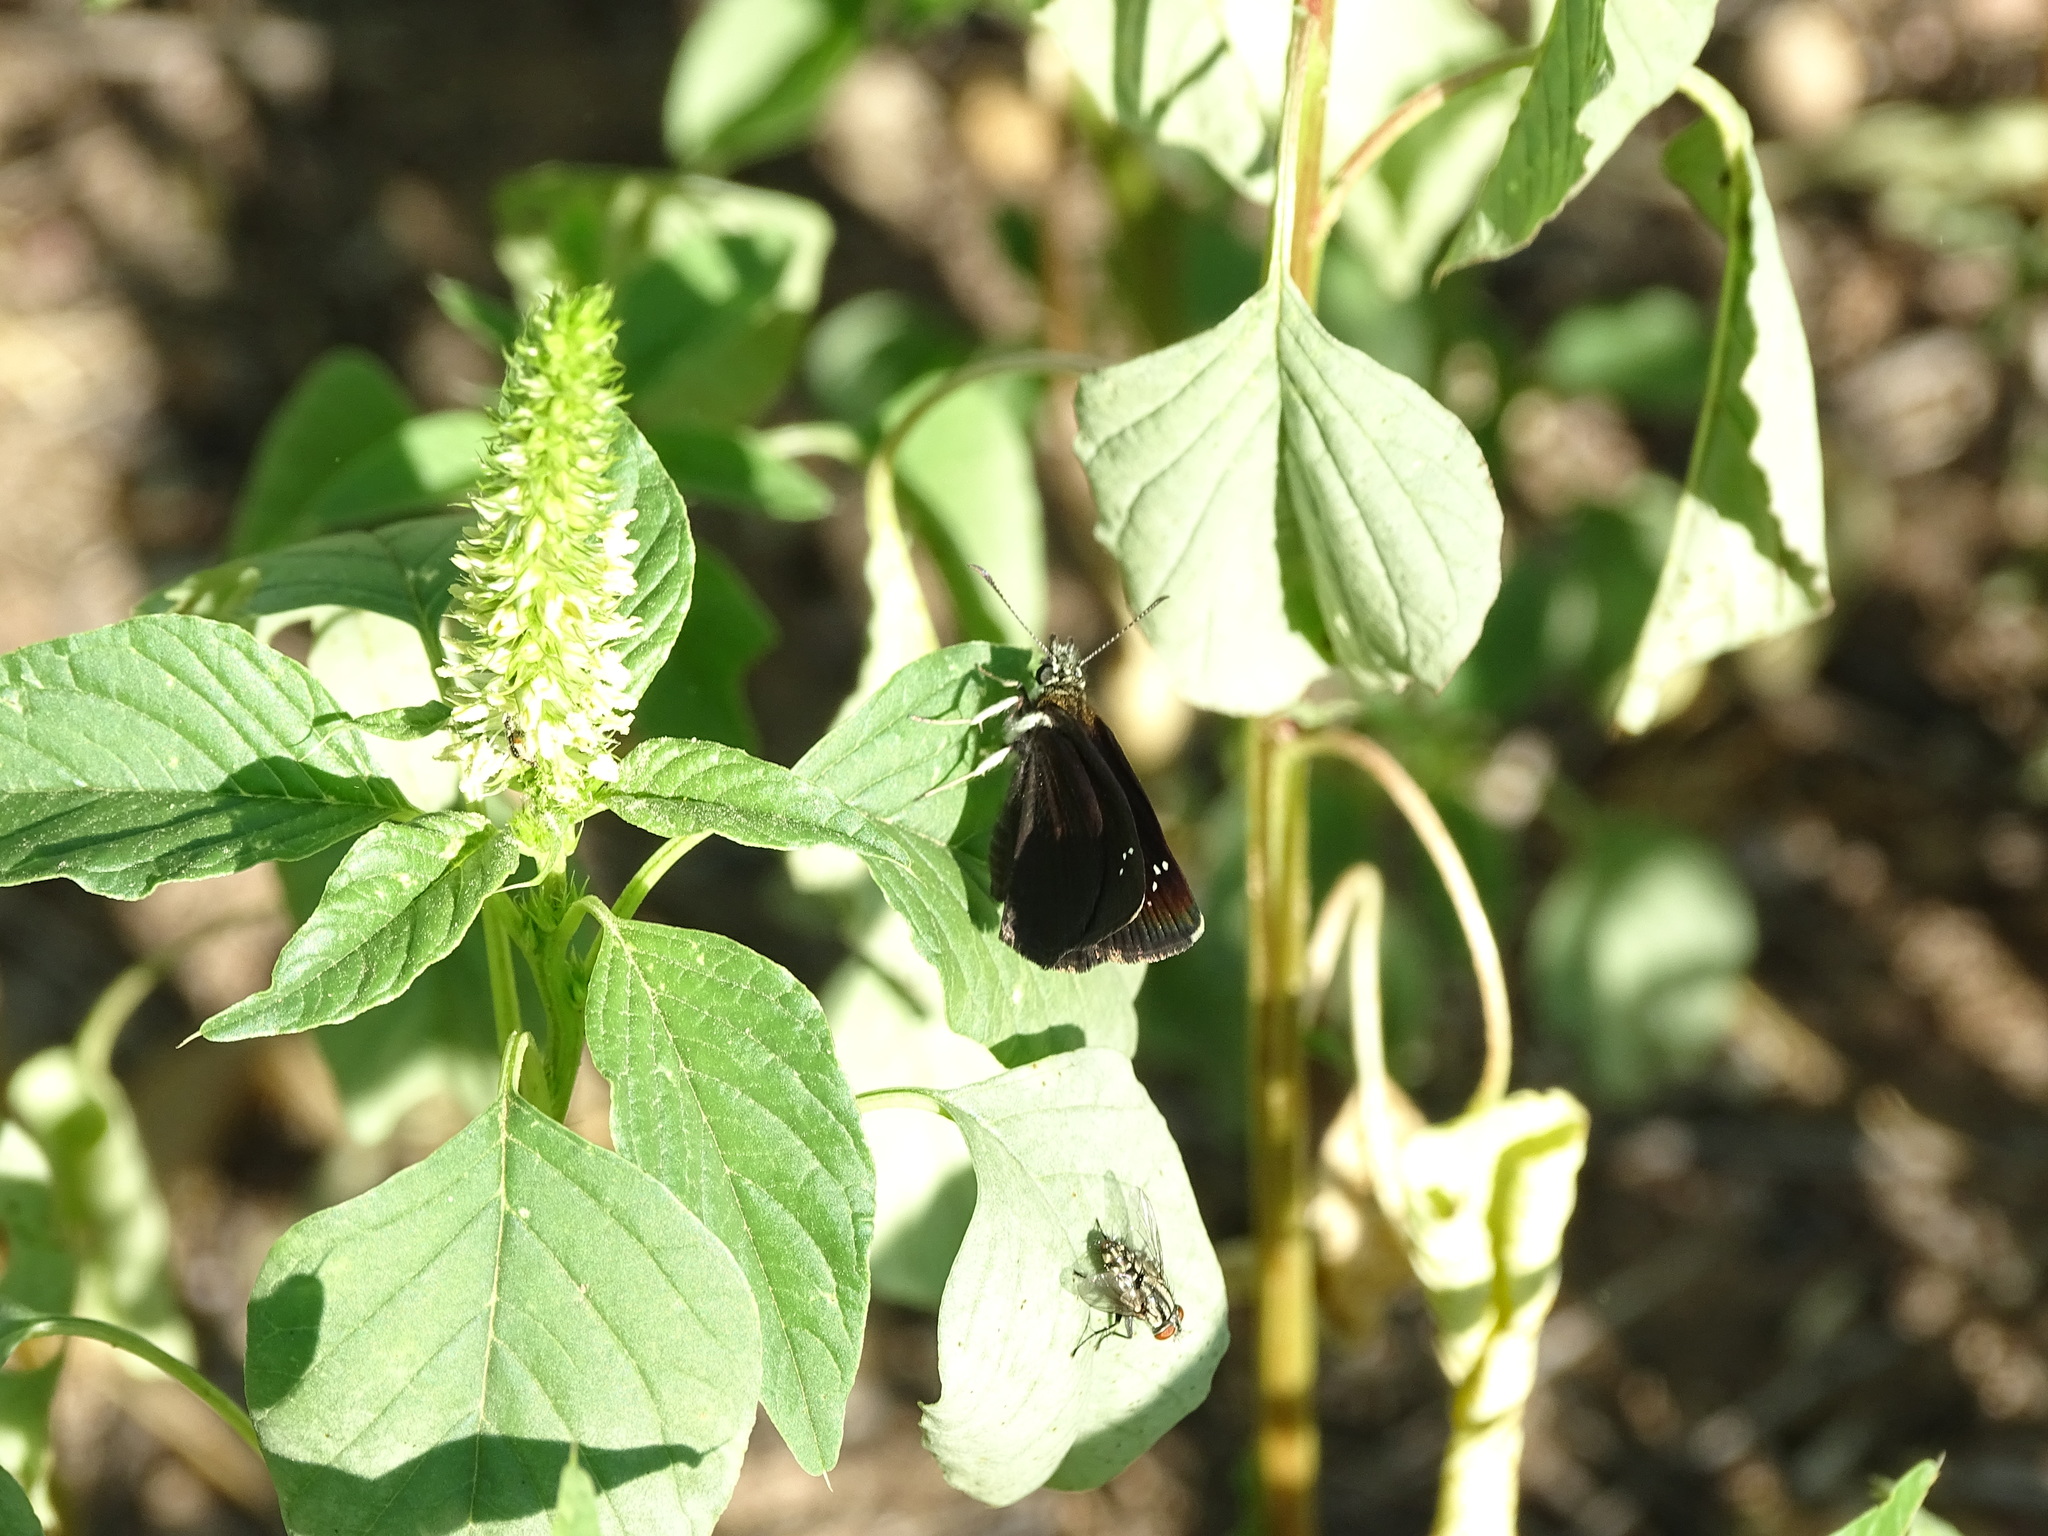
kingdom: Animalia
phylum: Arthropoda
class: Insecta
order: Lepidoptera
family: Hesperiidae
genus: Pholisora
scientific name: Pholisora catullus
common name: Common sootywing
